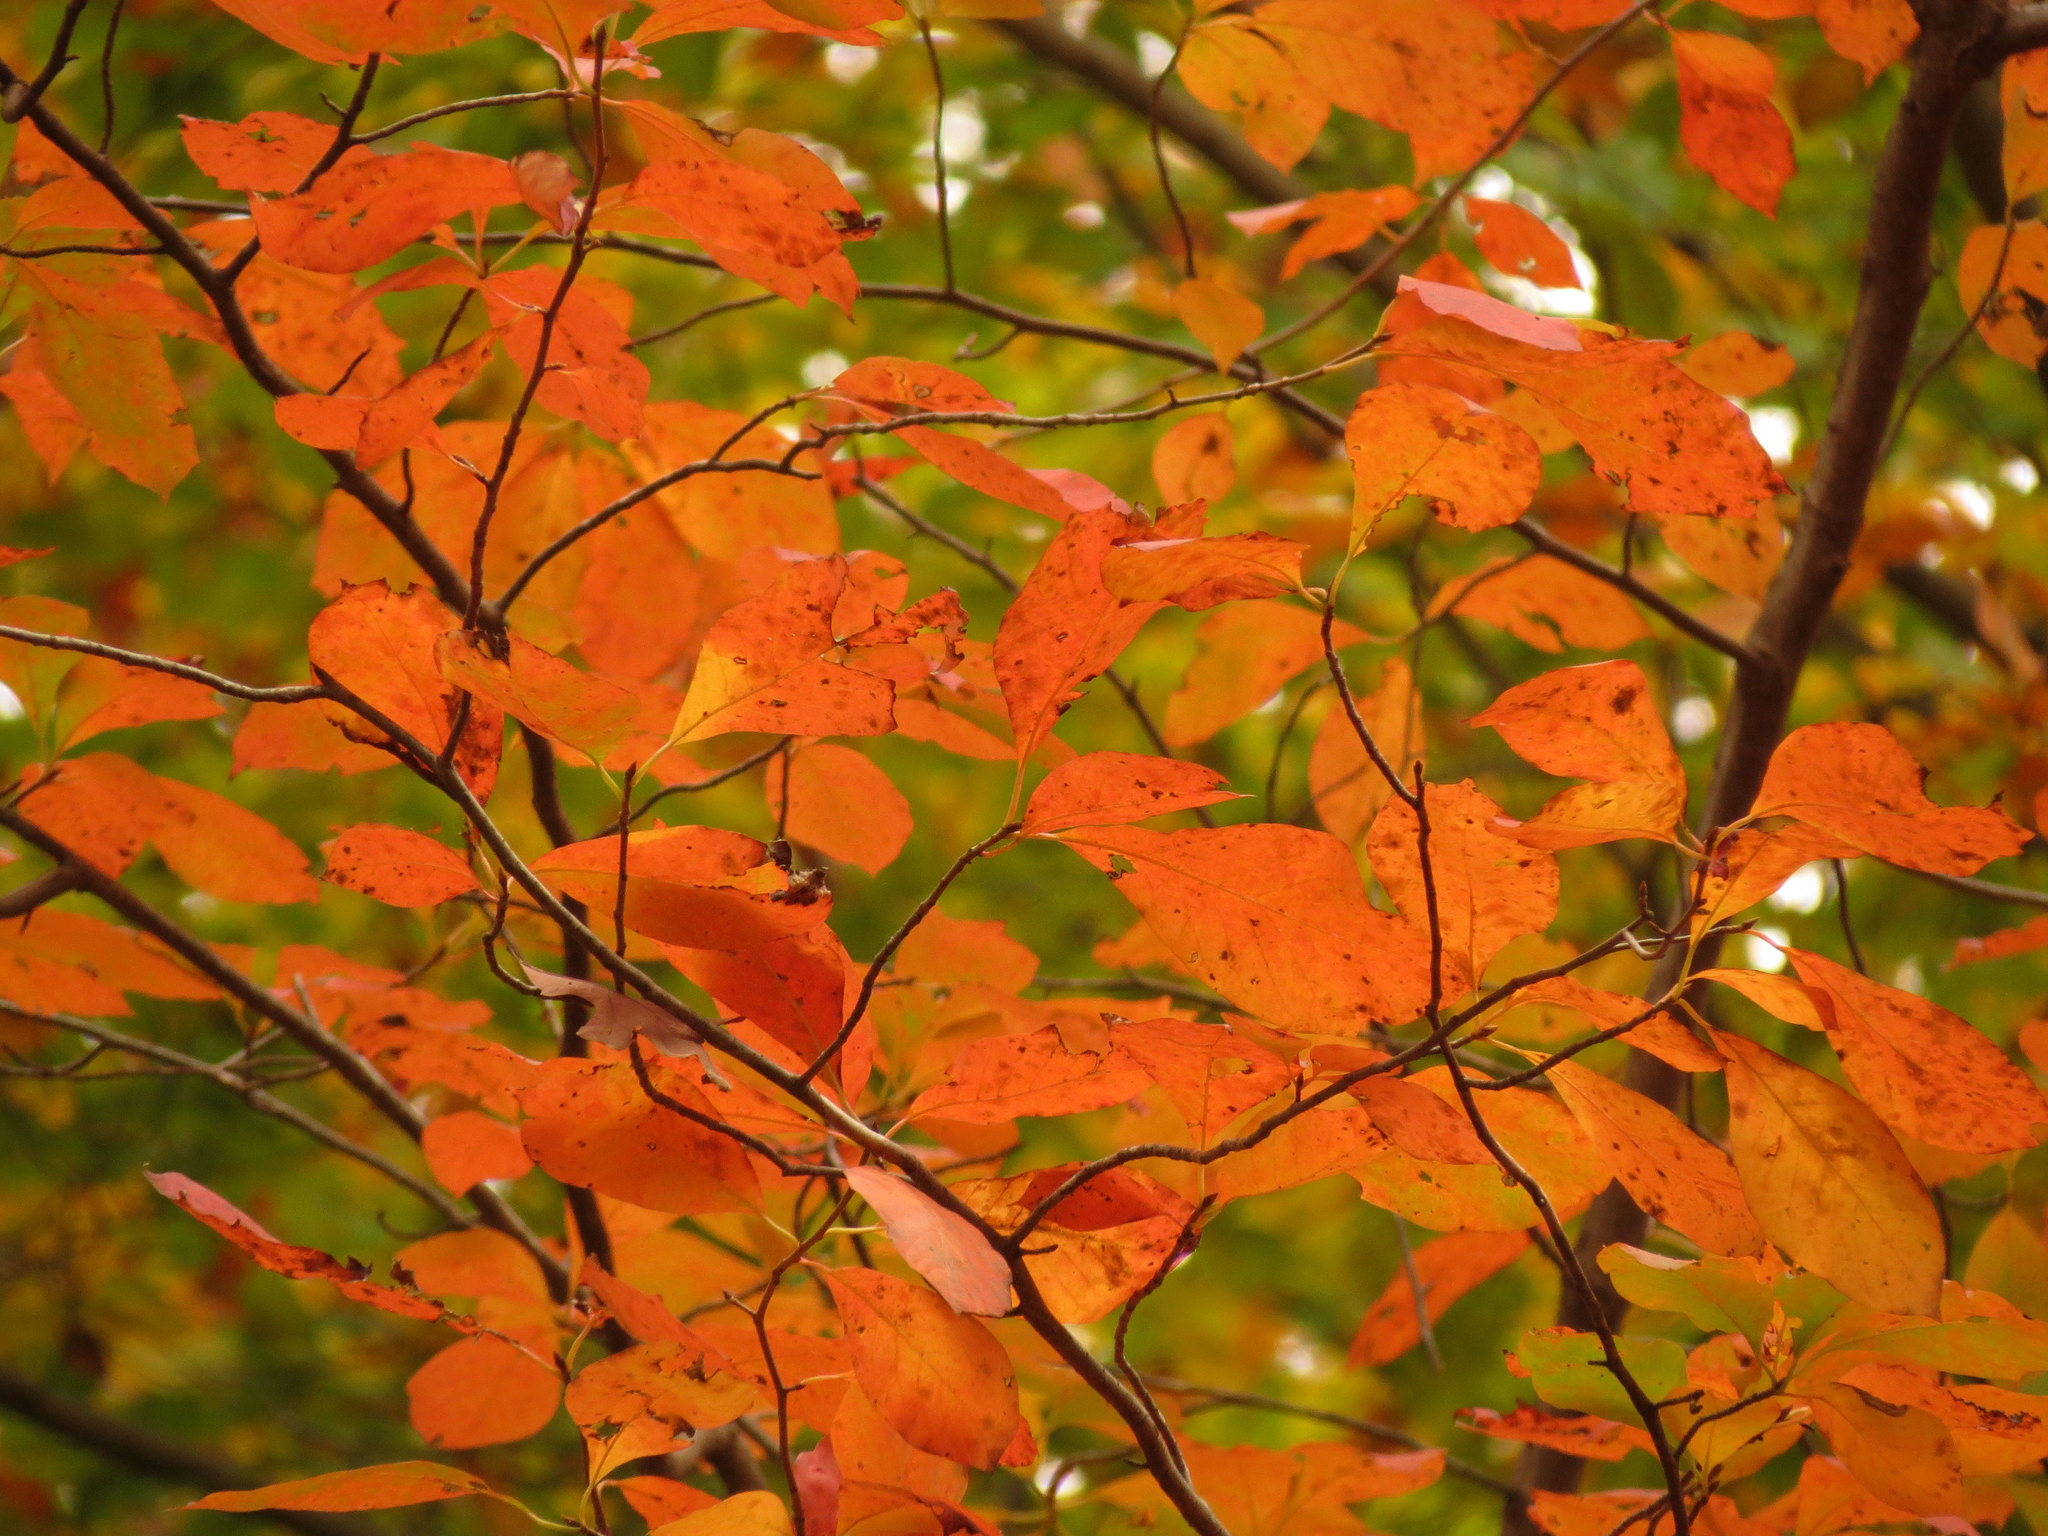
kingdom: Plantae
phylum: Tracheophyta
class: Magnoliopsida
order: Cornales
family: Nyssaceae
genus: Nyssa
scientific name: Nyssa sylvatica
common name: Black tupelo
